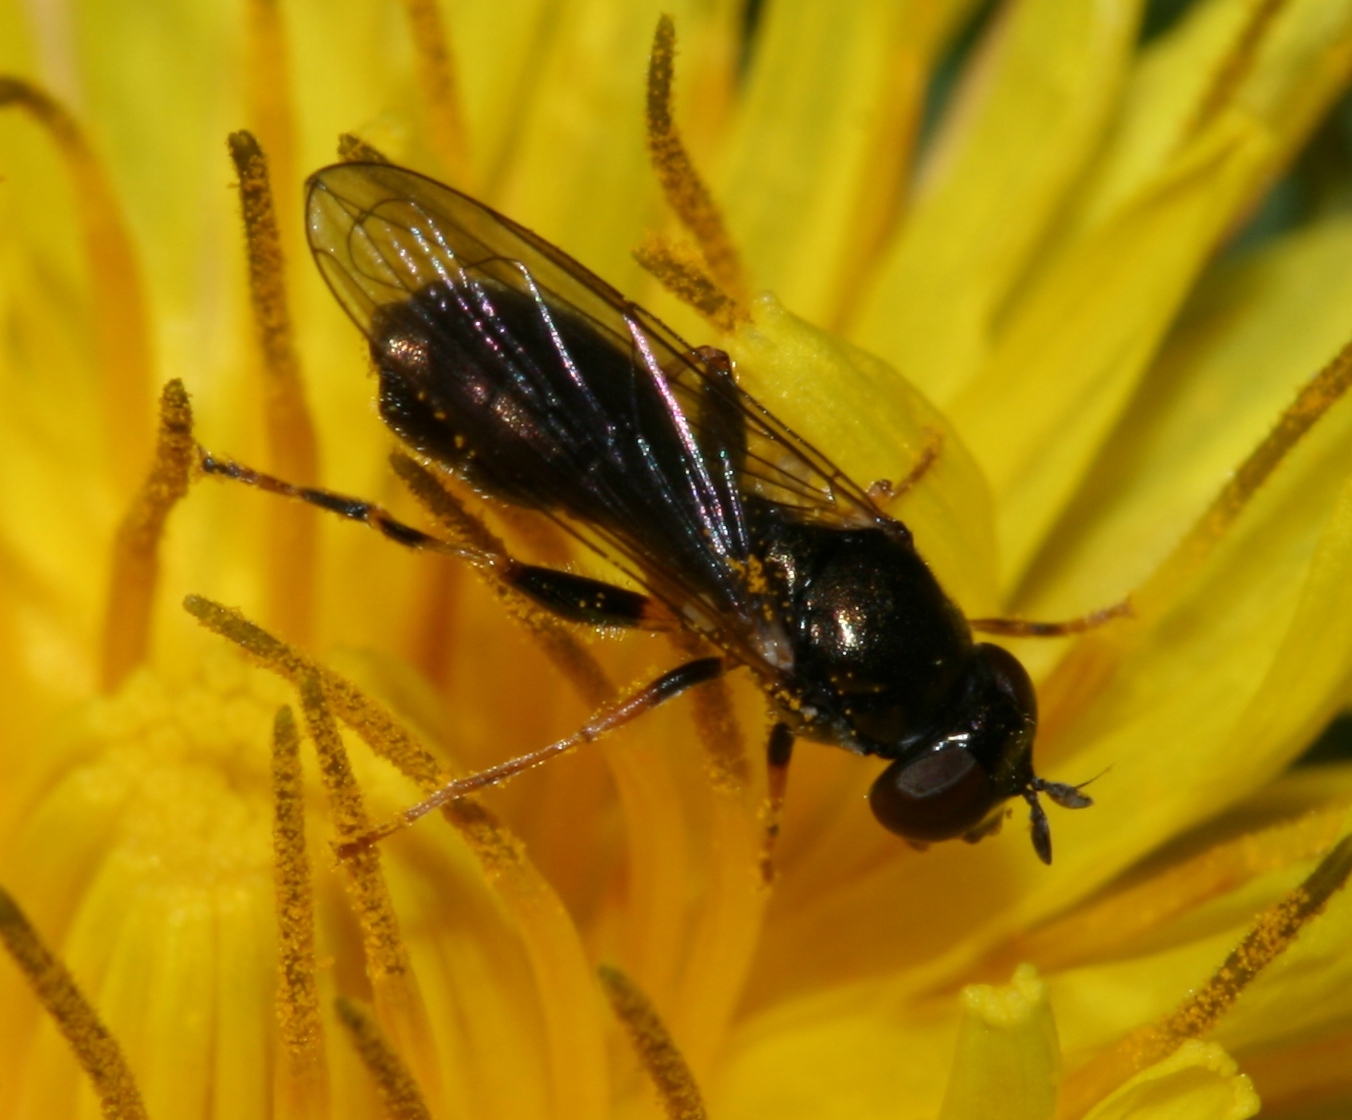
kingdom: Animalia
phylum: Arthropoda
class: Insecta
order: Diptera
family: Syrphidae
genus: Neoascia
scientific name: Neoascia meticulosa
